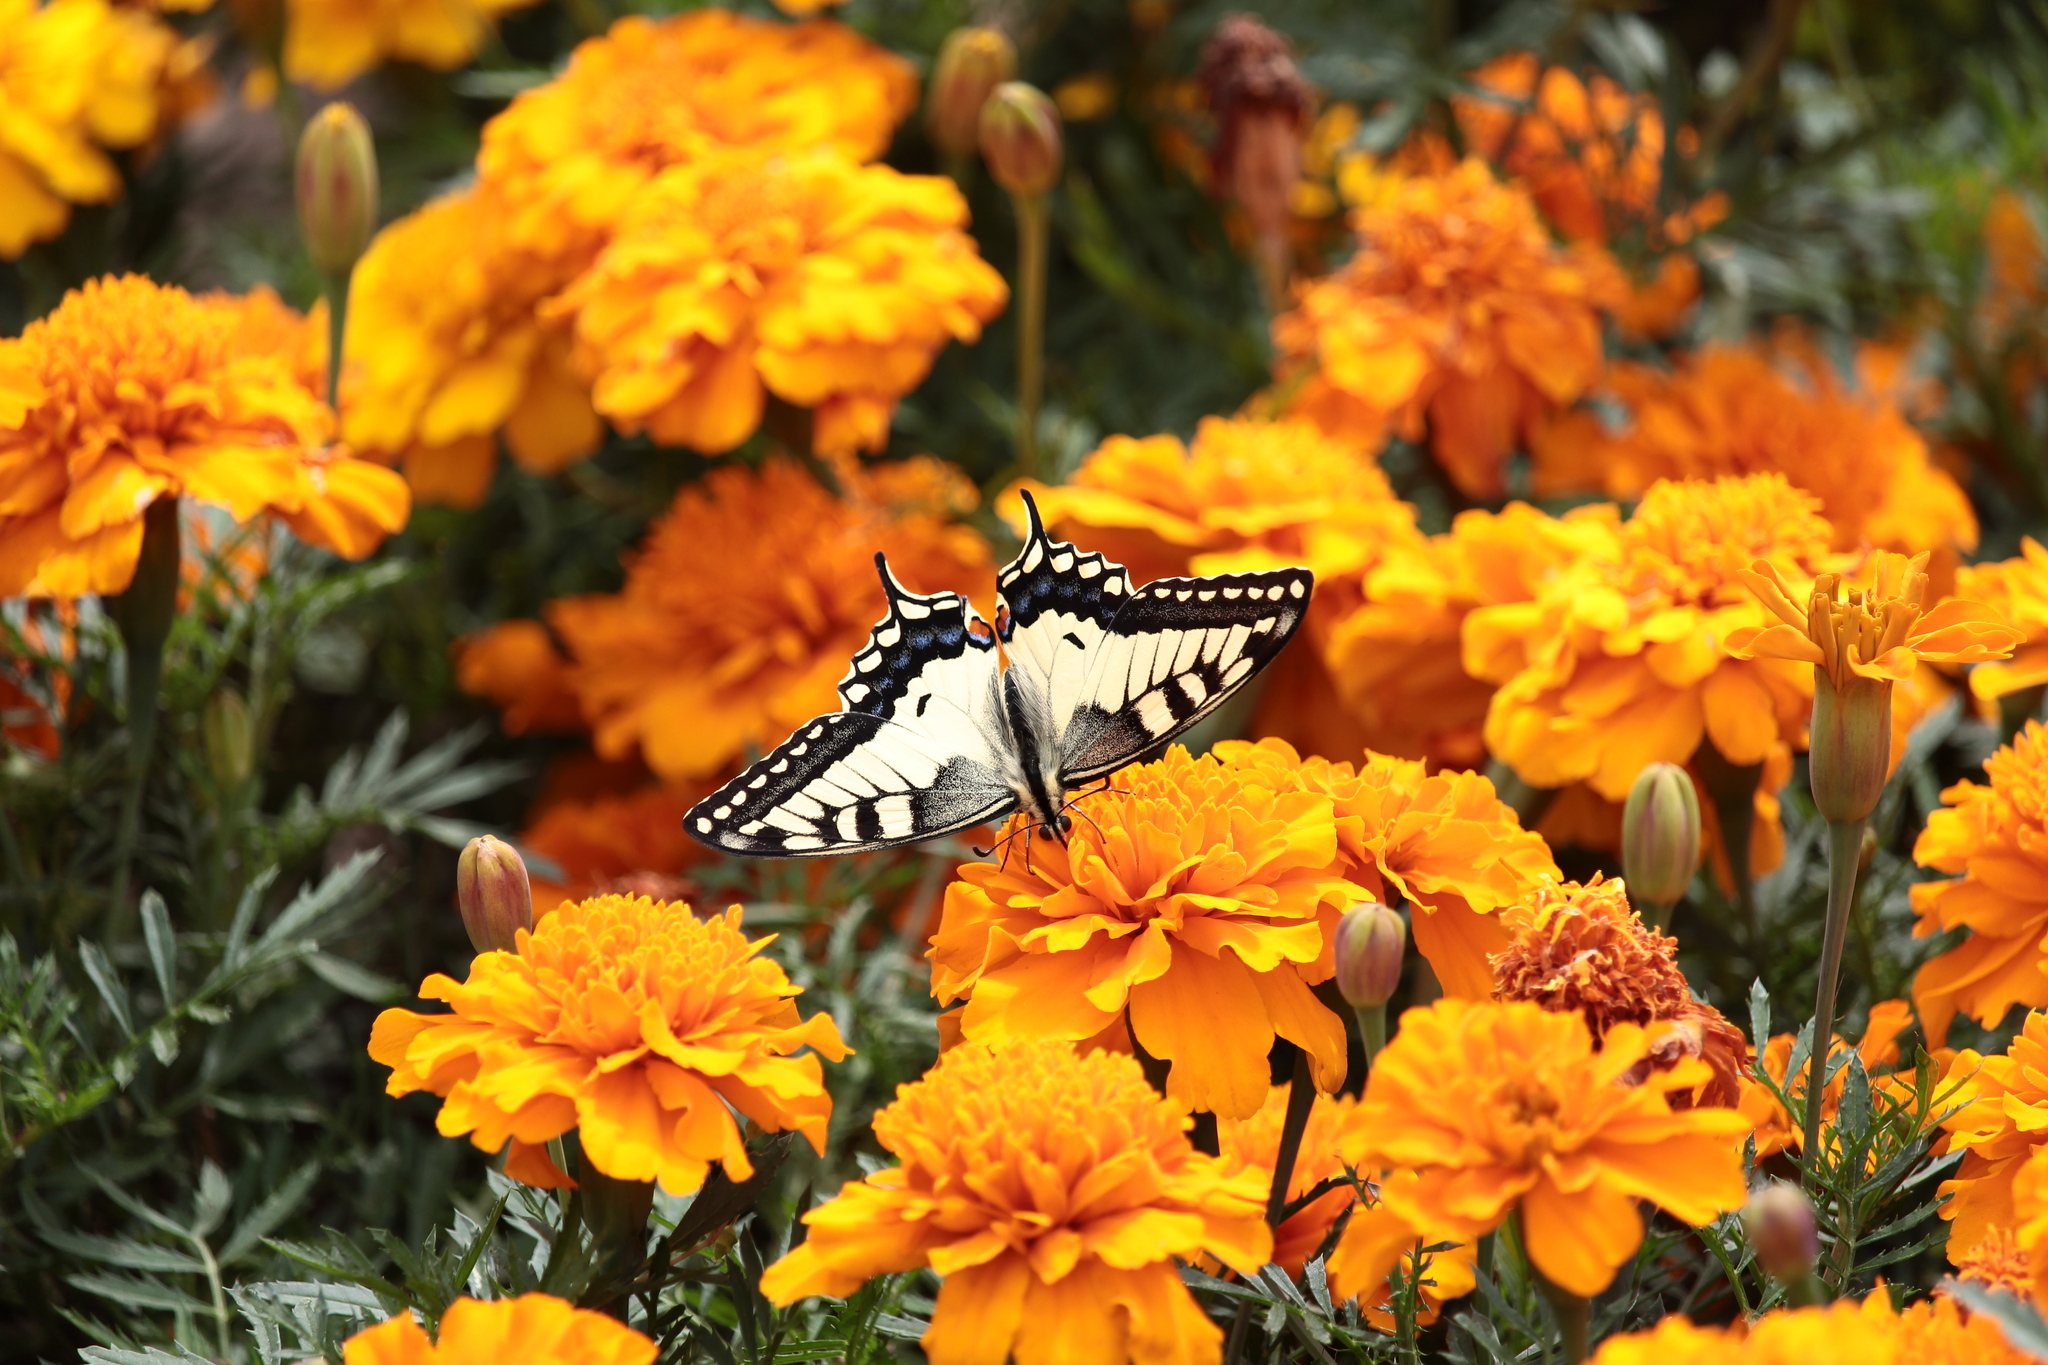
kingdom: Animalia
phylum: Arthropoda
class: Insecta
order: Lepidoptera
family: Papilionidae
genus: Papilio
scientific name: Papilio machaon
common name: Swallowtail
